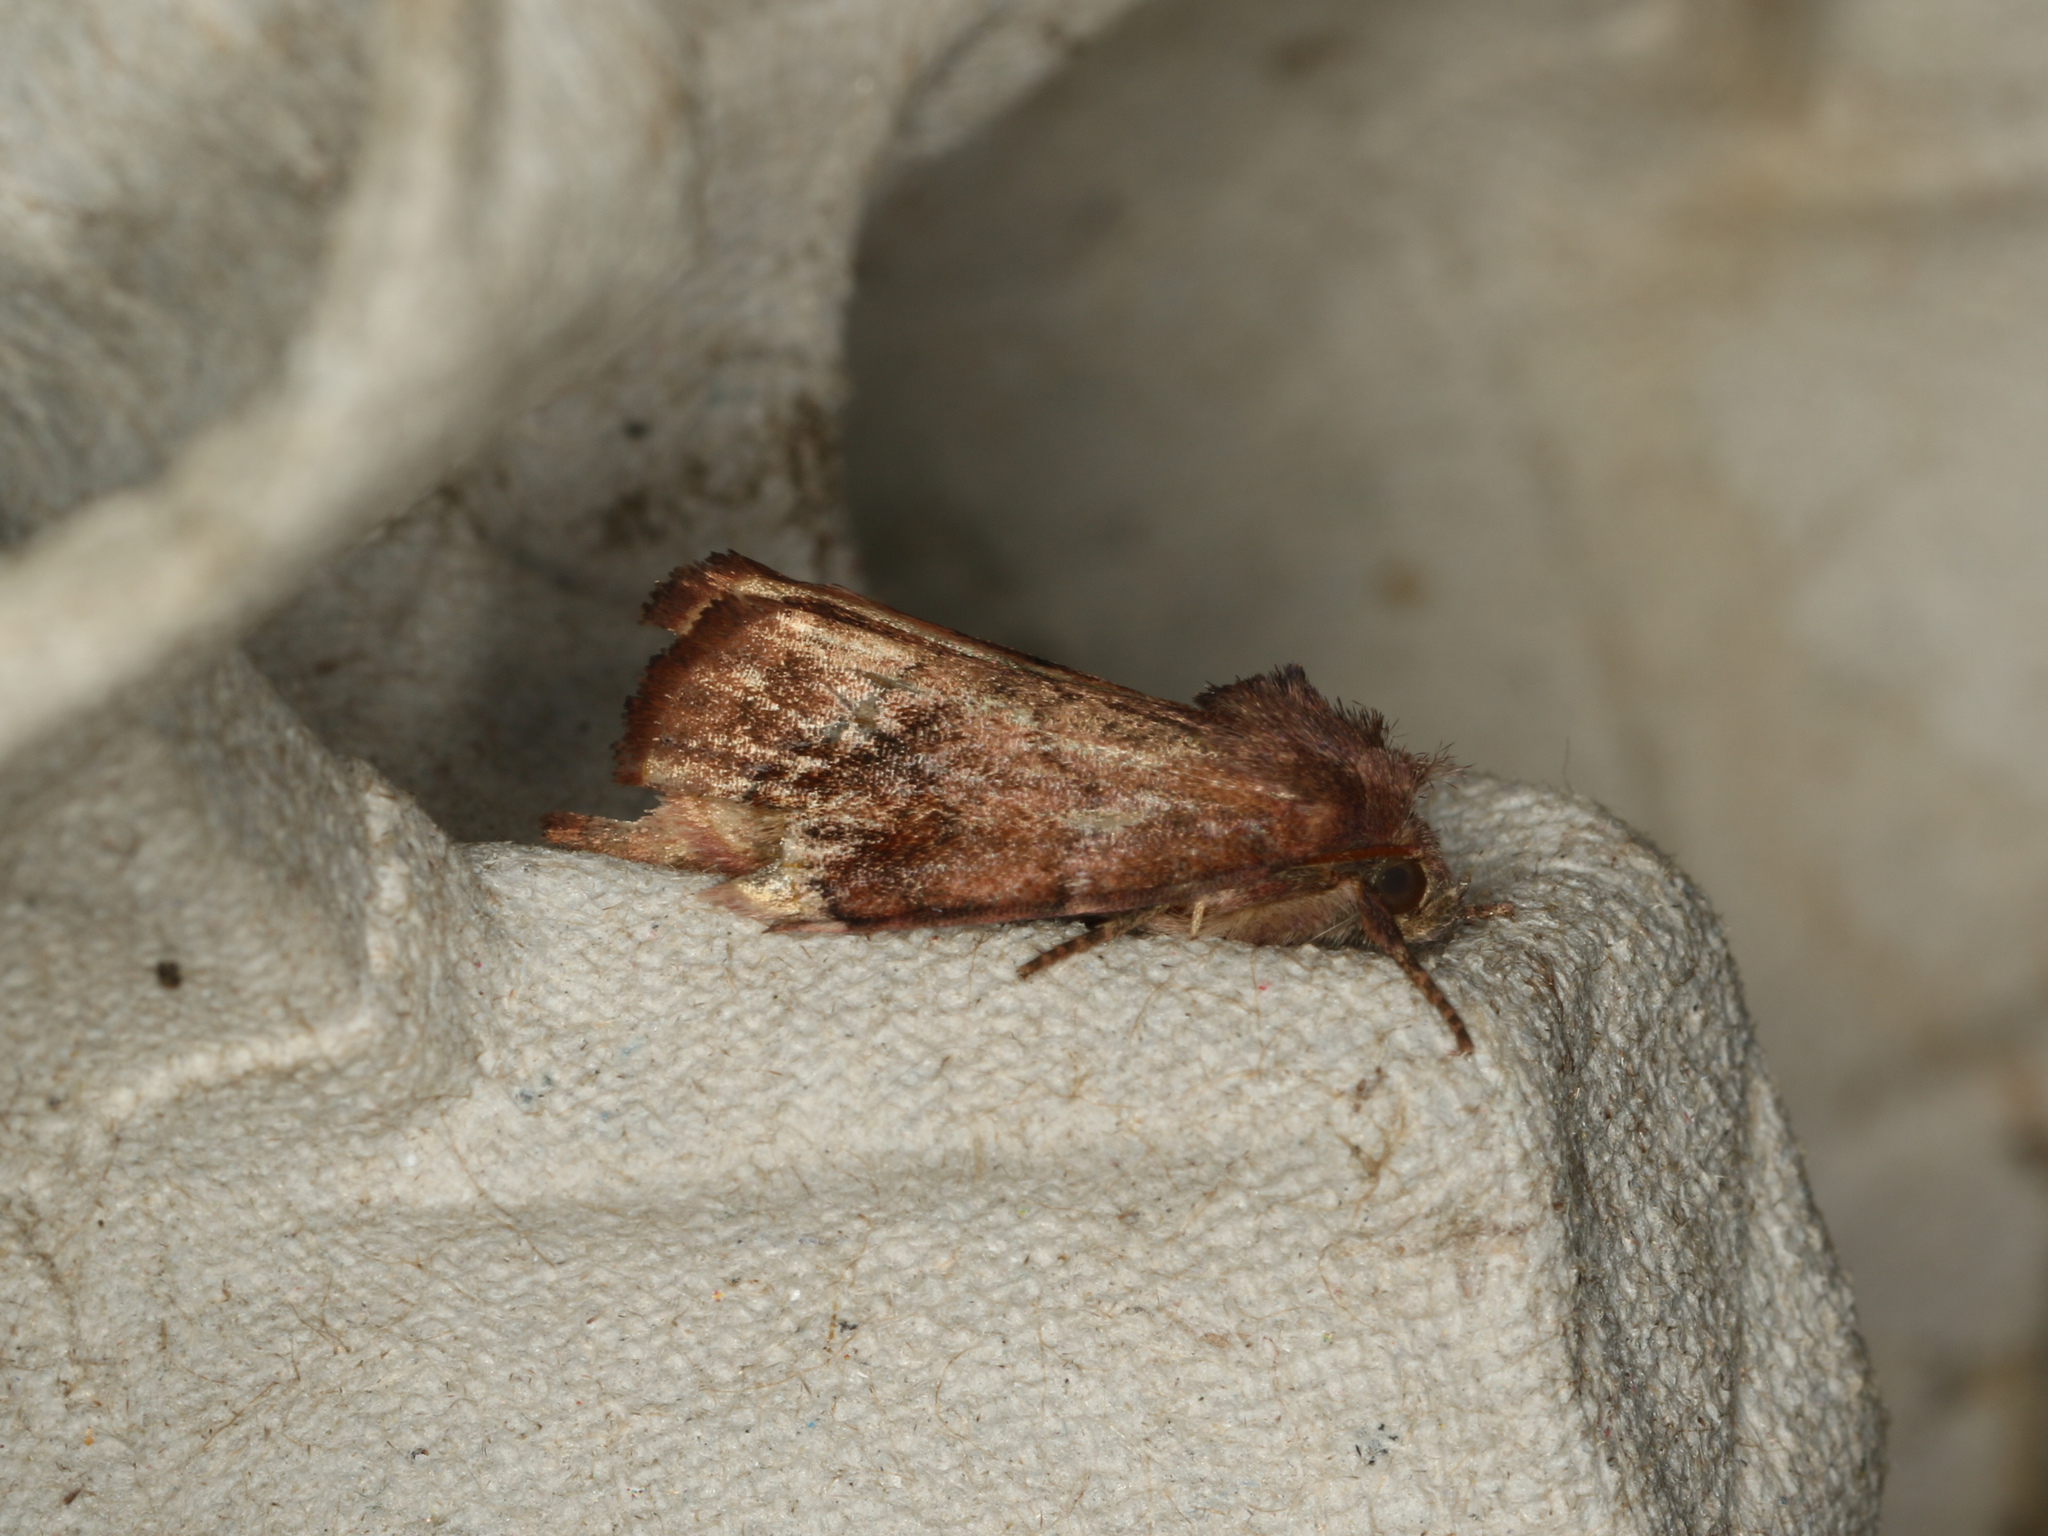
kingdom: Animalia
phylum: Arthropoda
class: Insecta
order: Lepidoptera
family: Noctuidae
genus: Cosmia
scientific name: Cosmia pyralina
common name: Lunar-spotted pinion
